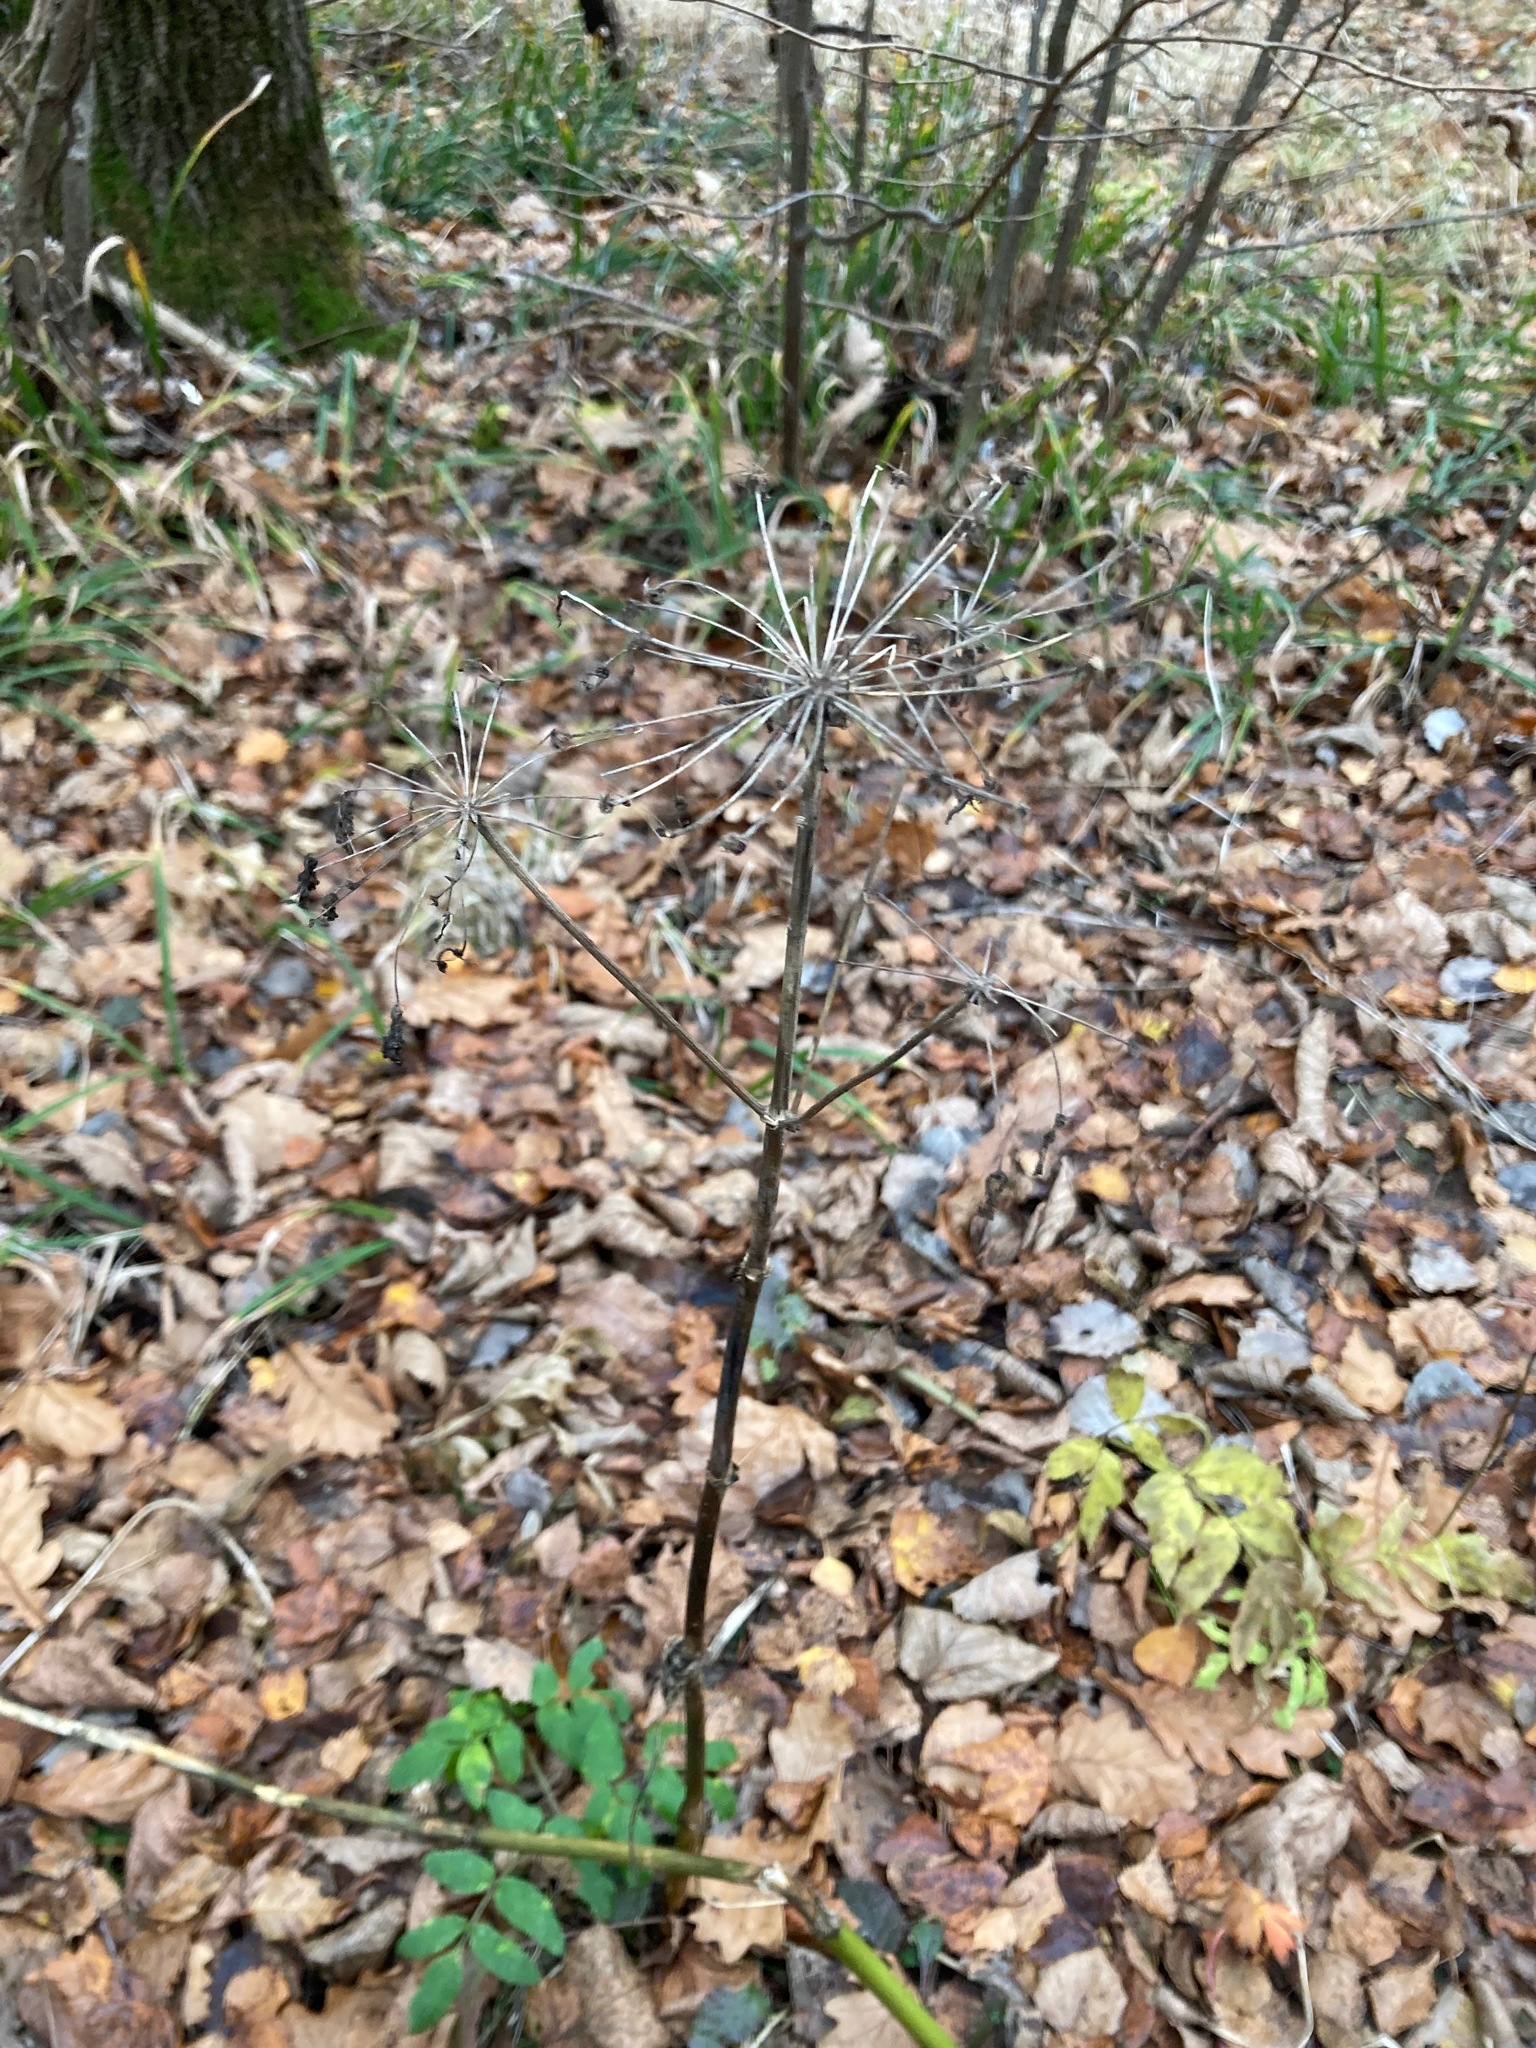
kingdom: Plantae
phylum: Tracheophyta
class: Magnoliopsida
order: Apiales
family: Apiaceae
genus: Angelica
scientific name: Angelica sylvestris
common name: Wild angelica
